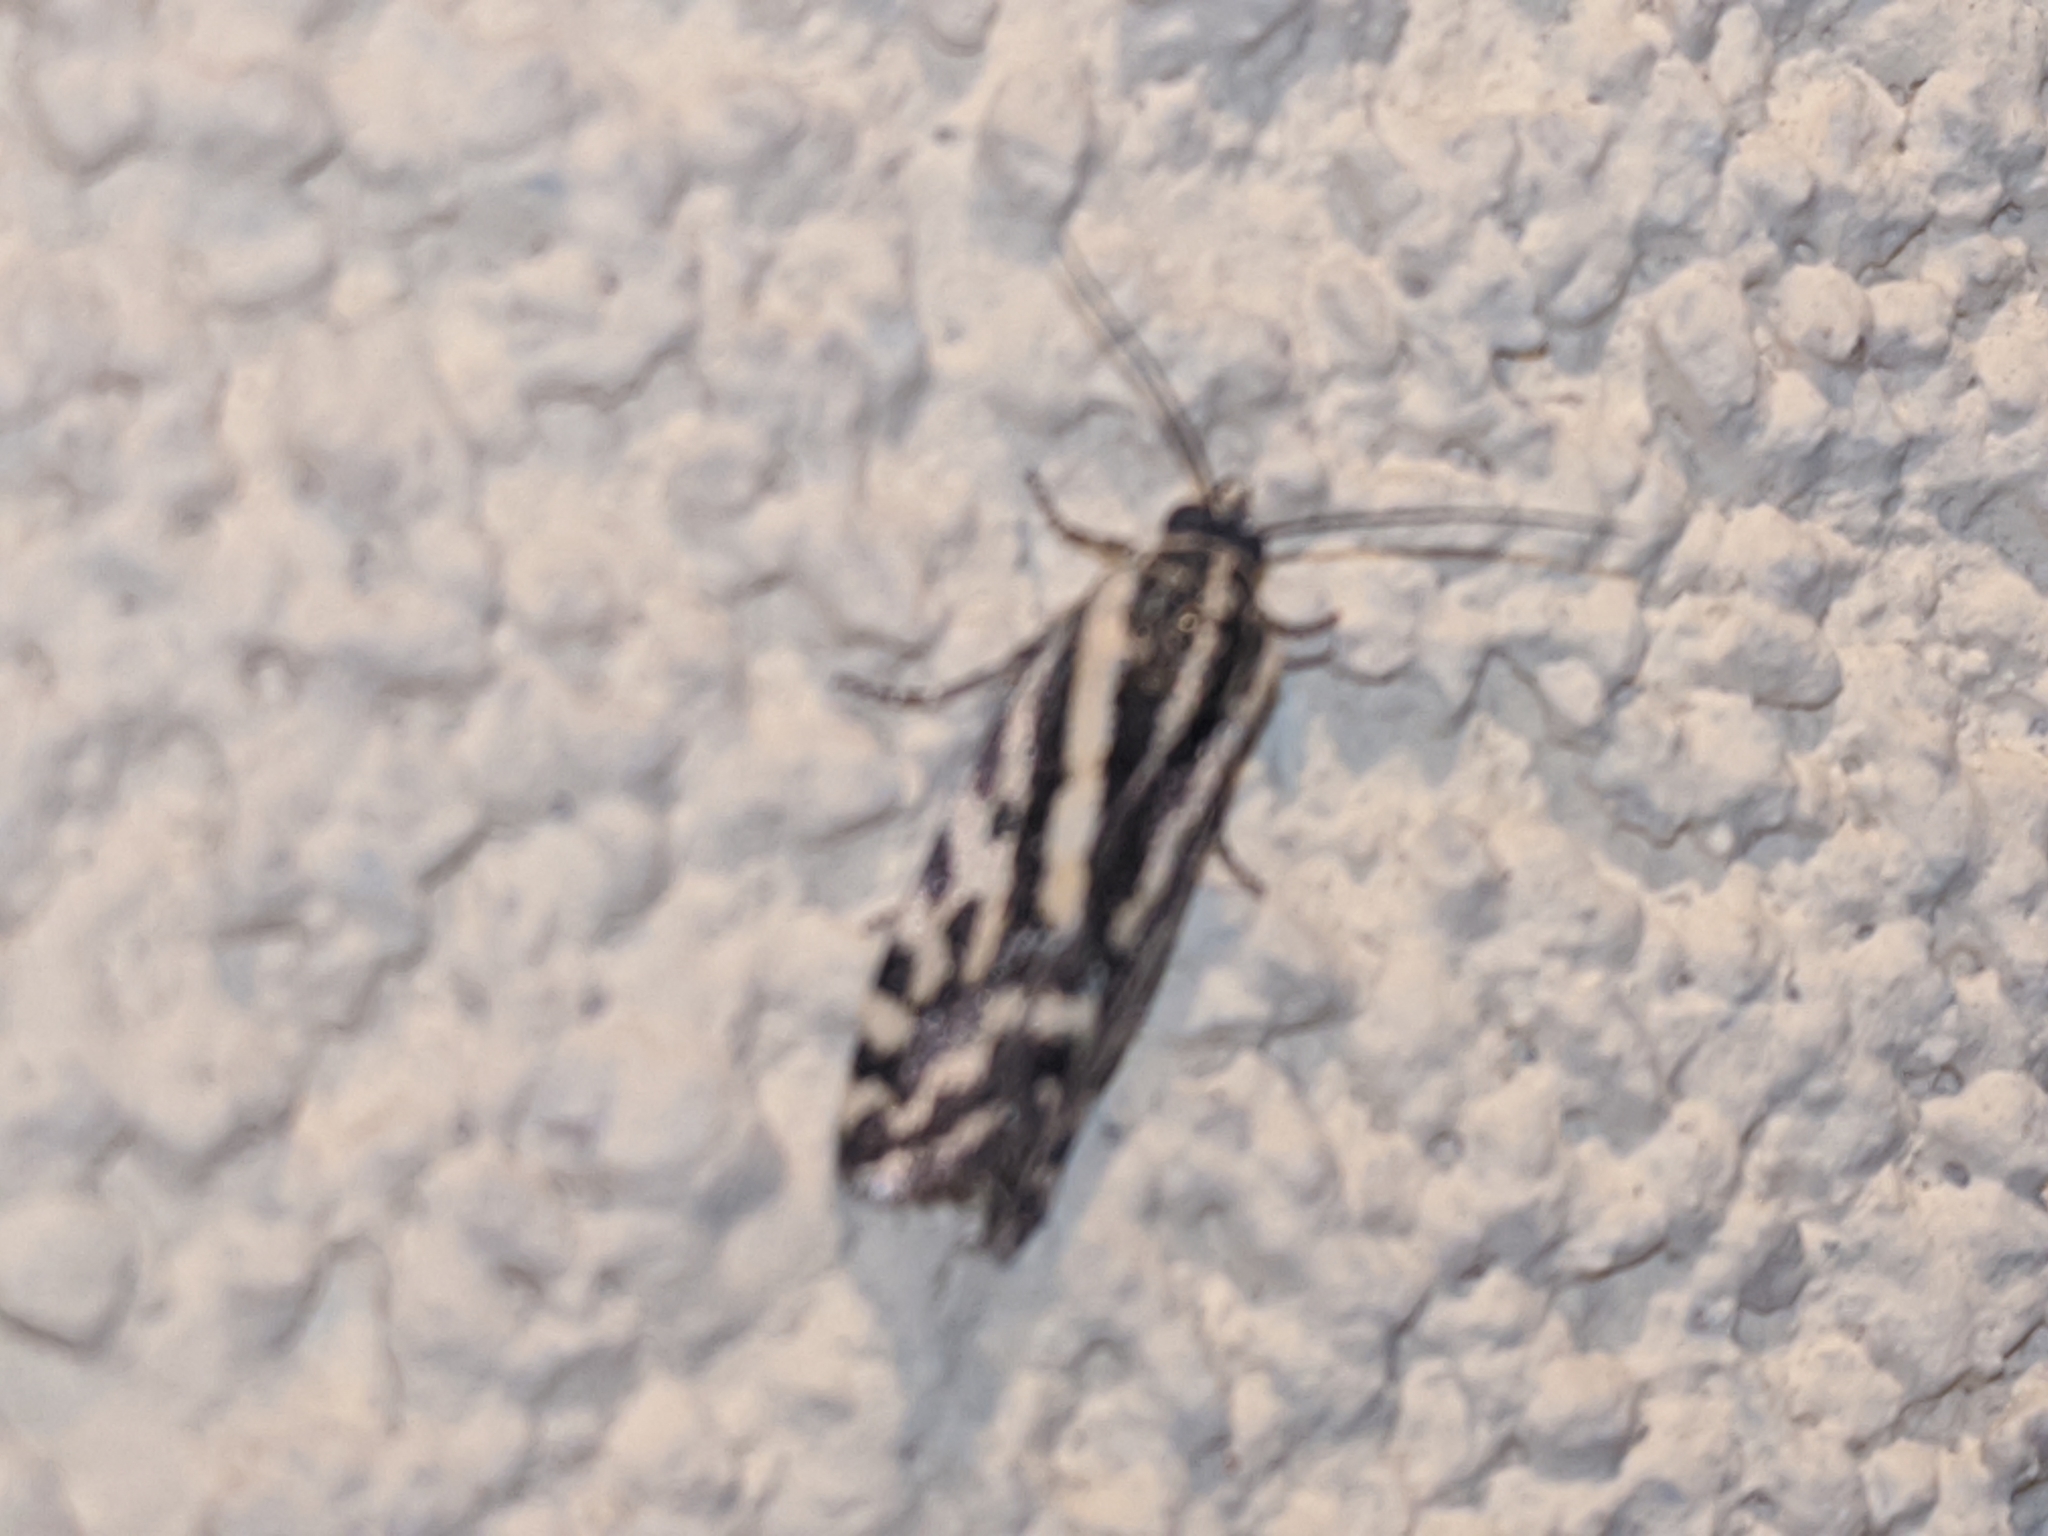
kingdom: Animalia
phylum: Arthropoda
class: Insecta
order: Lepidoptera
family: Noctuidae
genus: Acontia
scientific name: Acontia trabealis
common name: Spotted sulphur
